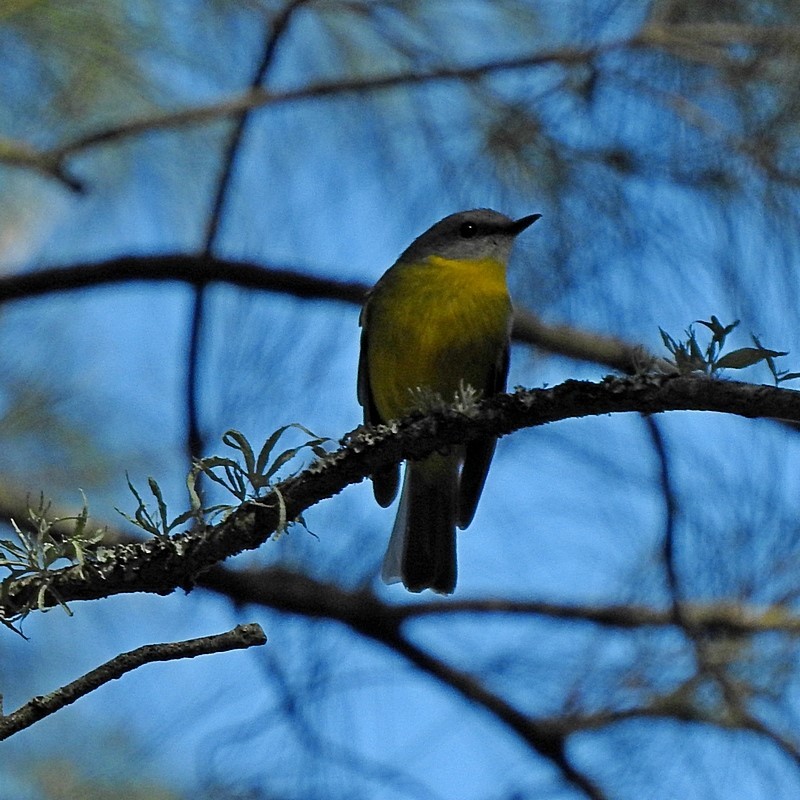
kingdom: Animalia
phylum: Chordata
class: Aves
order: Passeriformes
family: Petroicidae
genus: Eopsaltria
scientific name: Eopsaltria australis
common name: Eastern yellow robin
